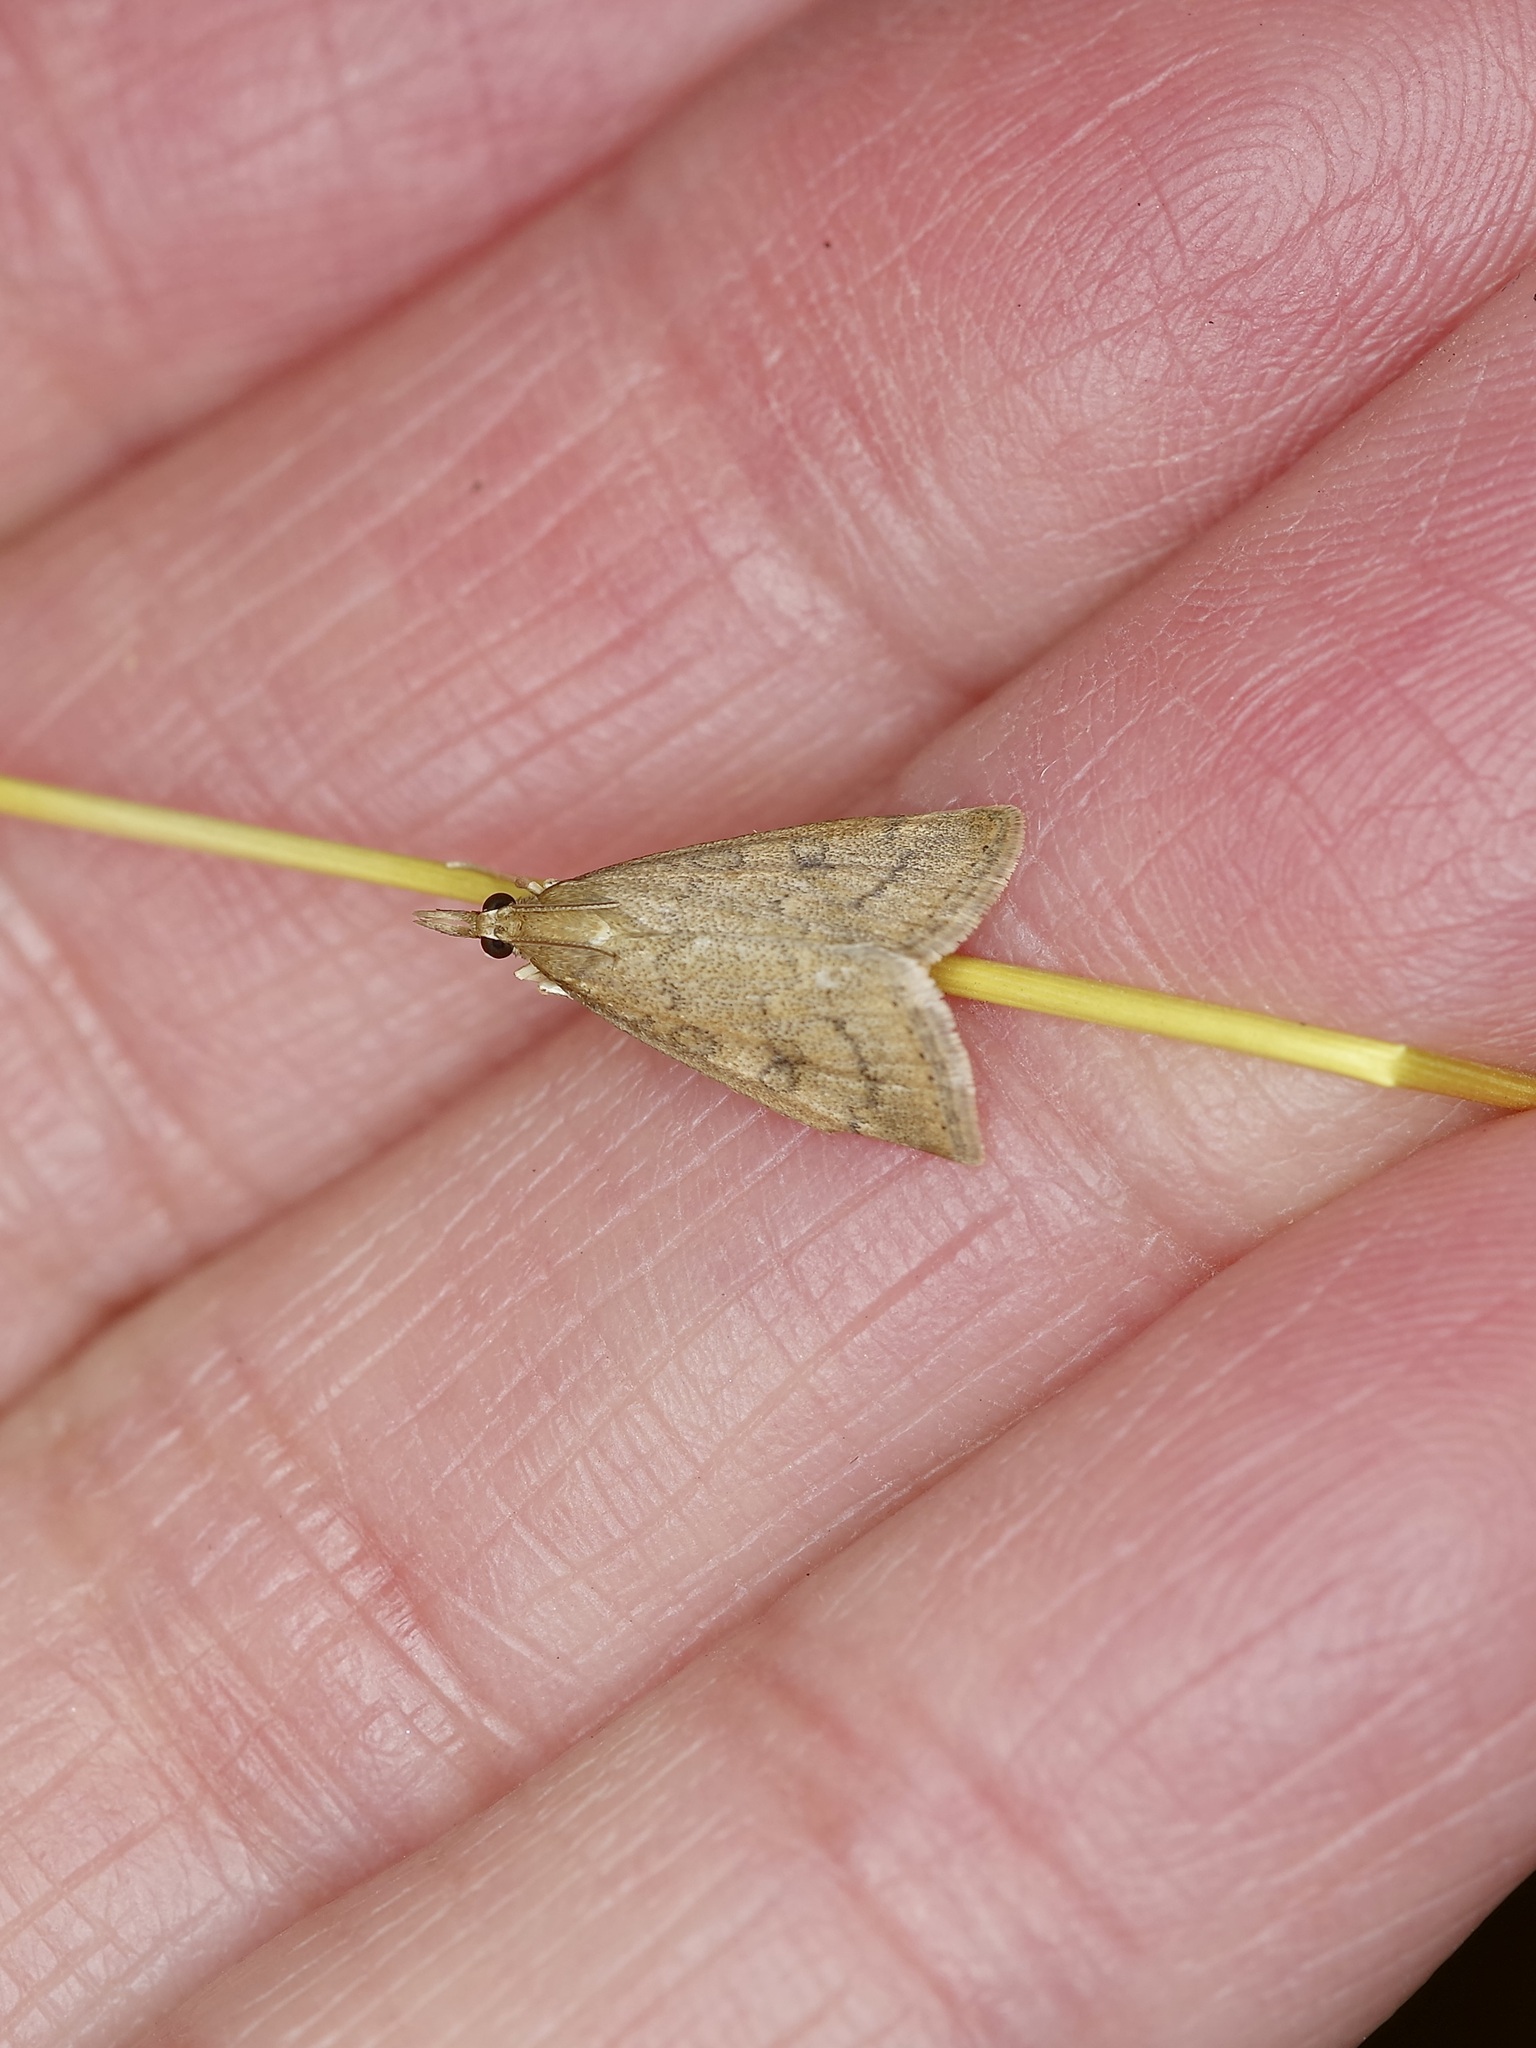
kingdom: Animalia
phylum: Arthropoda
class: Insecta
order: Lepidoptera
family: Crambidae
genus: Udea
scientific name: Udea rubigalis
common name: Celery leaftier moth
